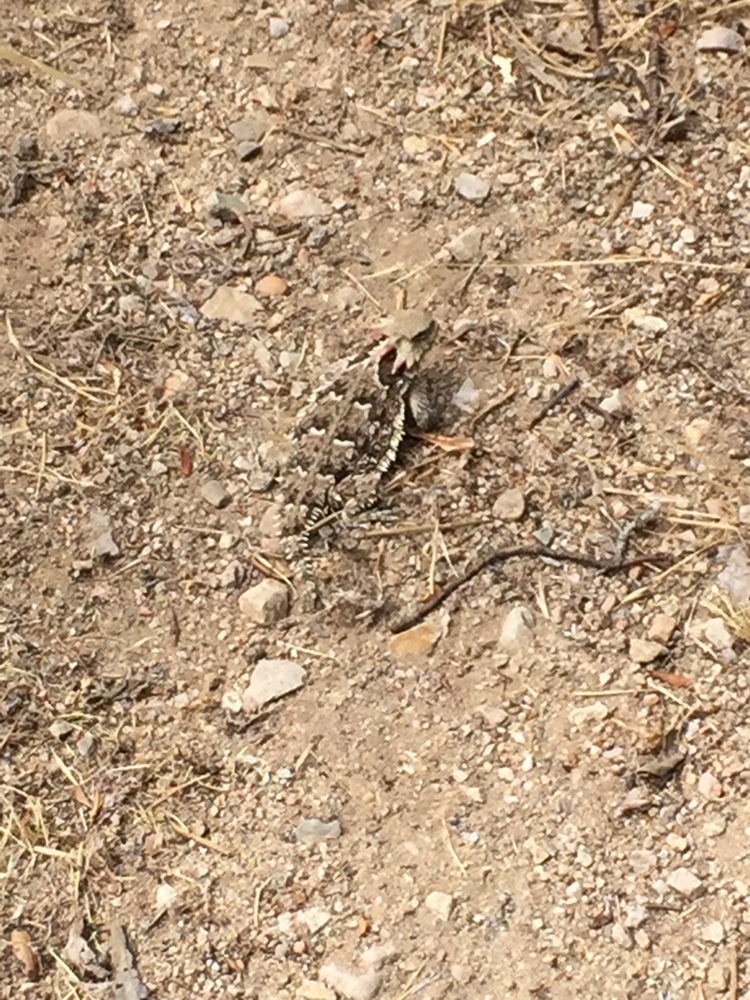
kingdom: Animalia
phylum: Chordata
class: Squamata
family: Phrynosomatidae
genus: Phrynosoma
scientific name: Phrynosoma blainvillii
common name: San diego horned lizard
